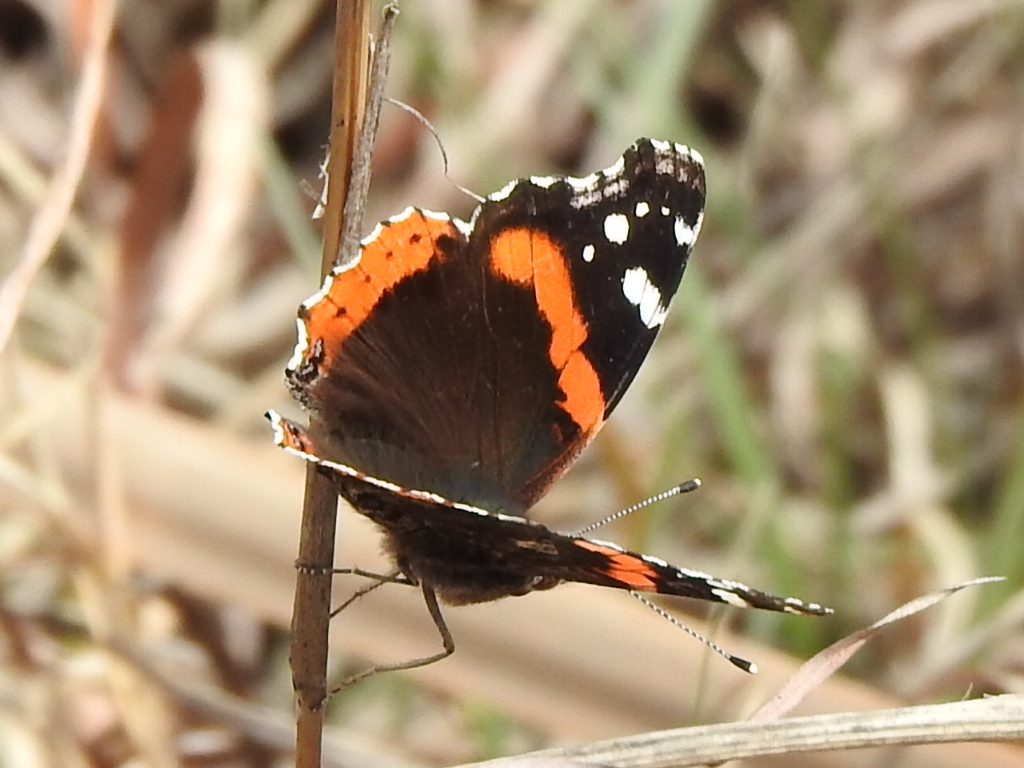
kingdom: Animalia
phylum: Arthropoda
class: Insecta
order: Lepidoptera
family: Nymphalidae
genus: Vanessa
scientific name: Vanessa atalanta
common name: Red admiral
